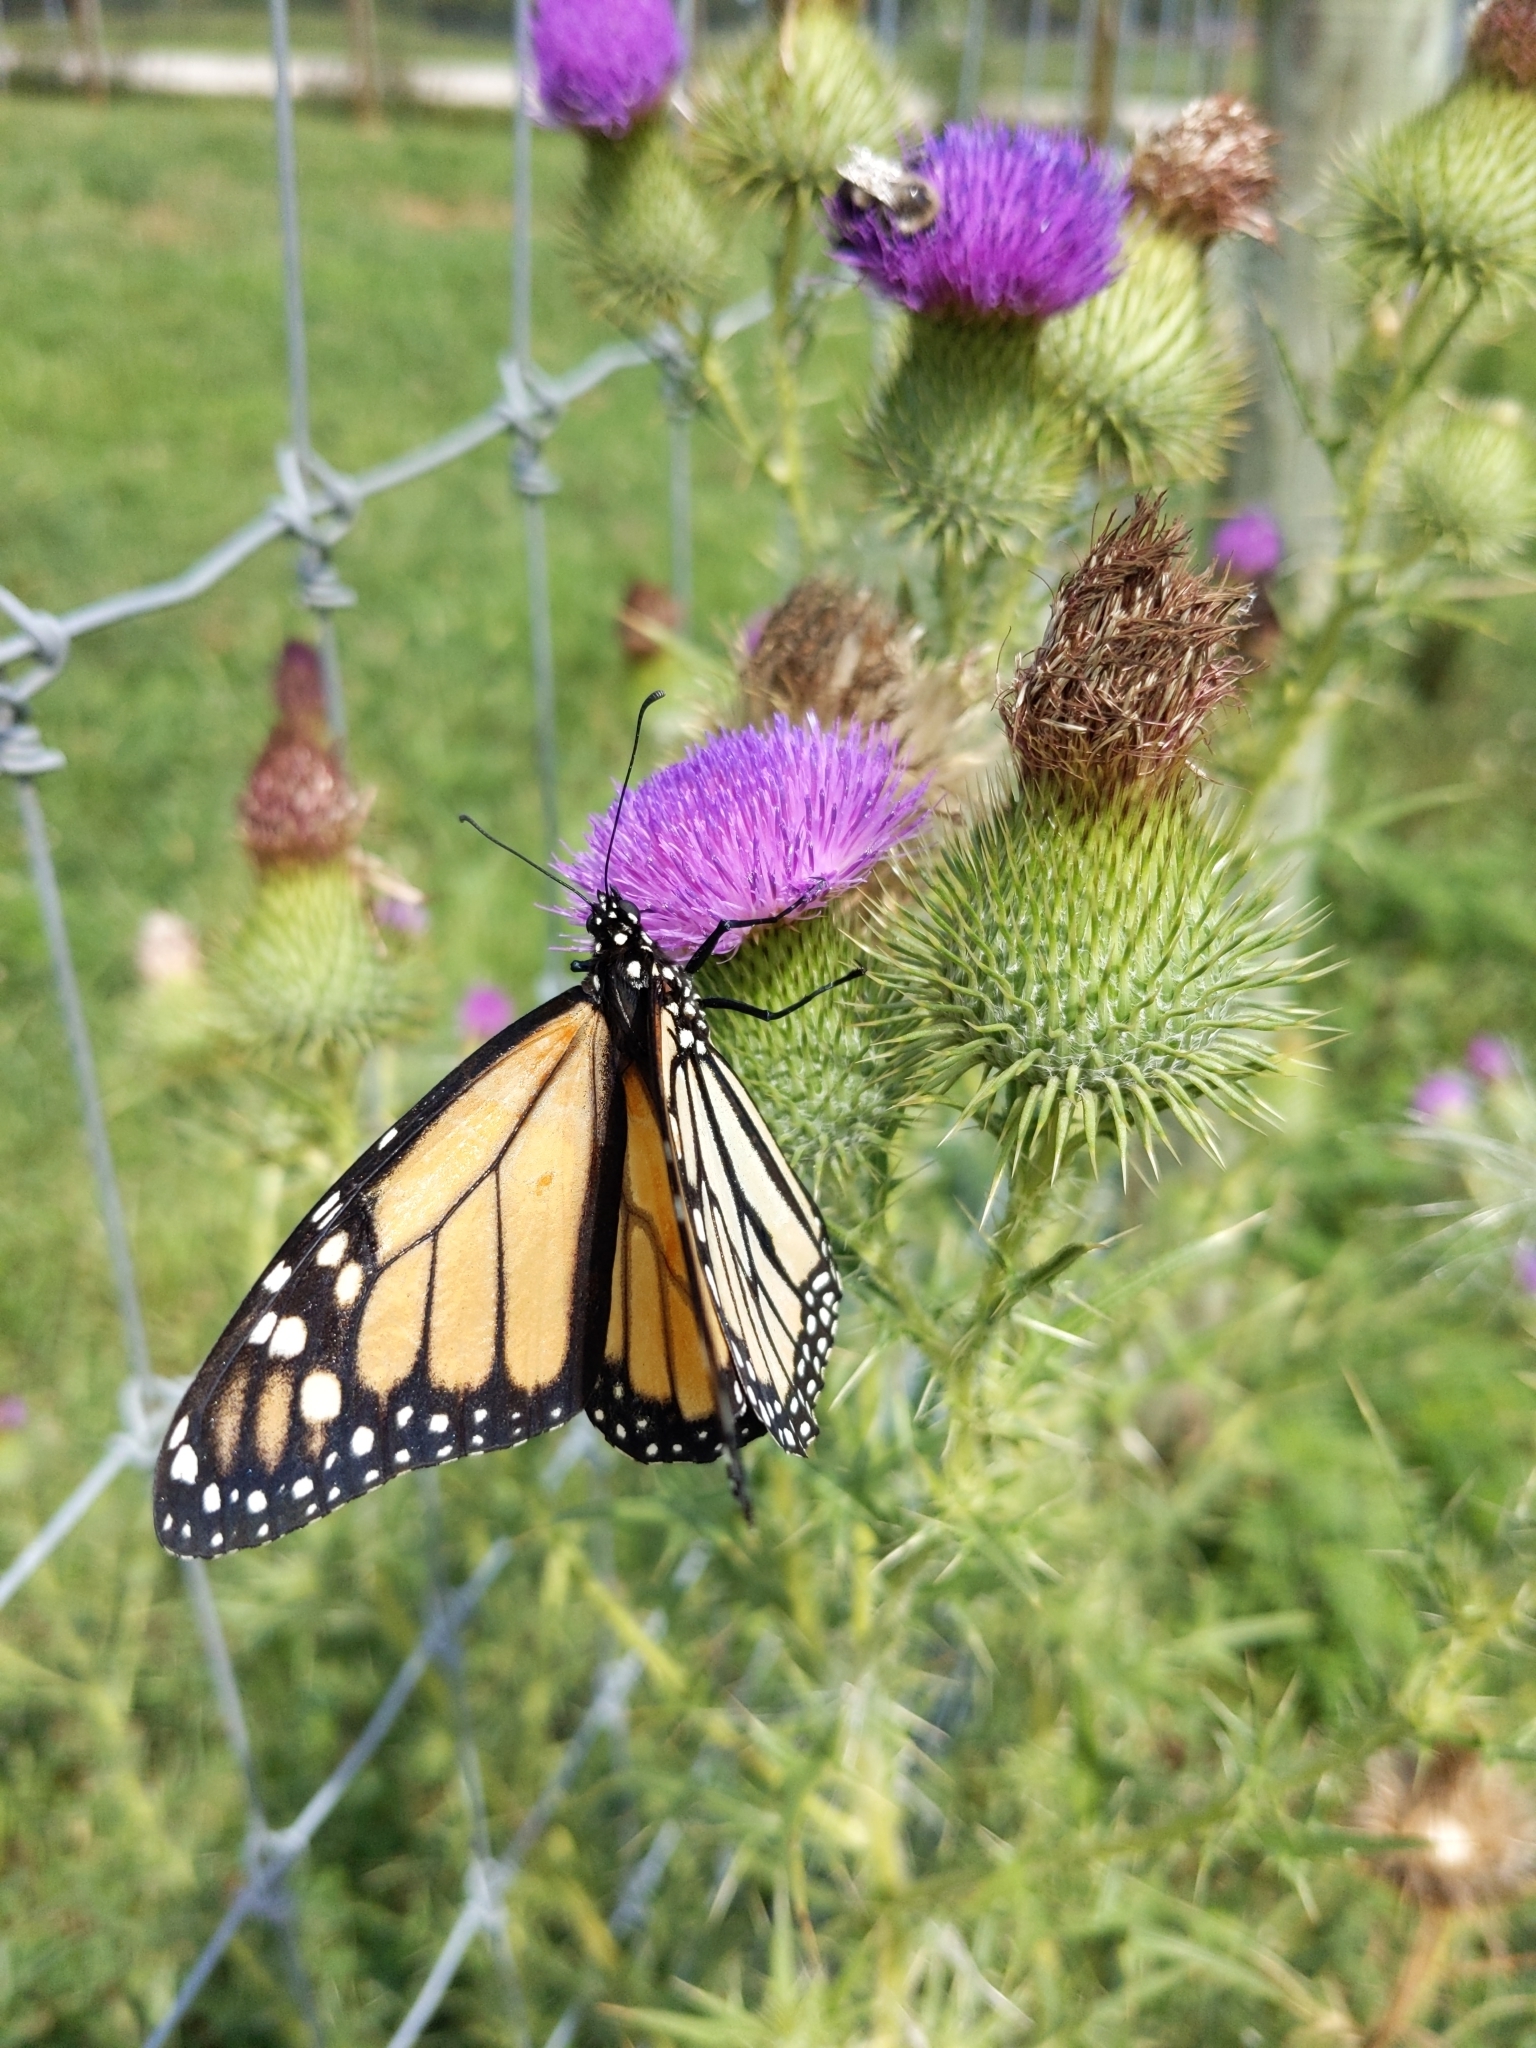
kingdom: Animalia
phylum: Arthropoda
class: Insecta
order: Lepidoptera
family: Nymphalidae
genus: Danaus
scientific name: Danaus plexippus
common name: Monarch
